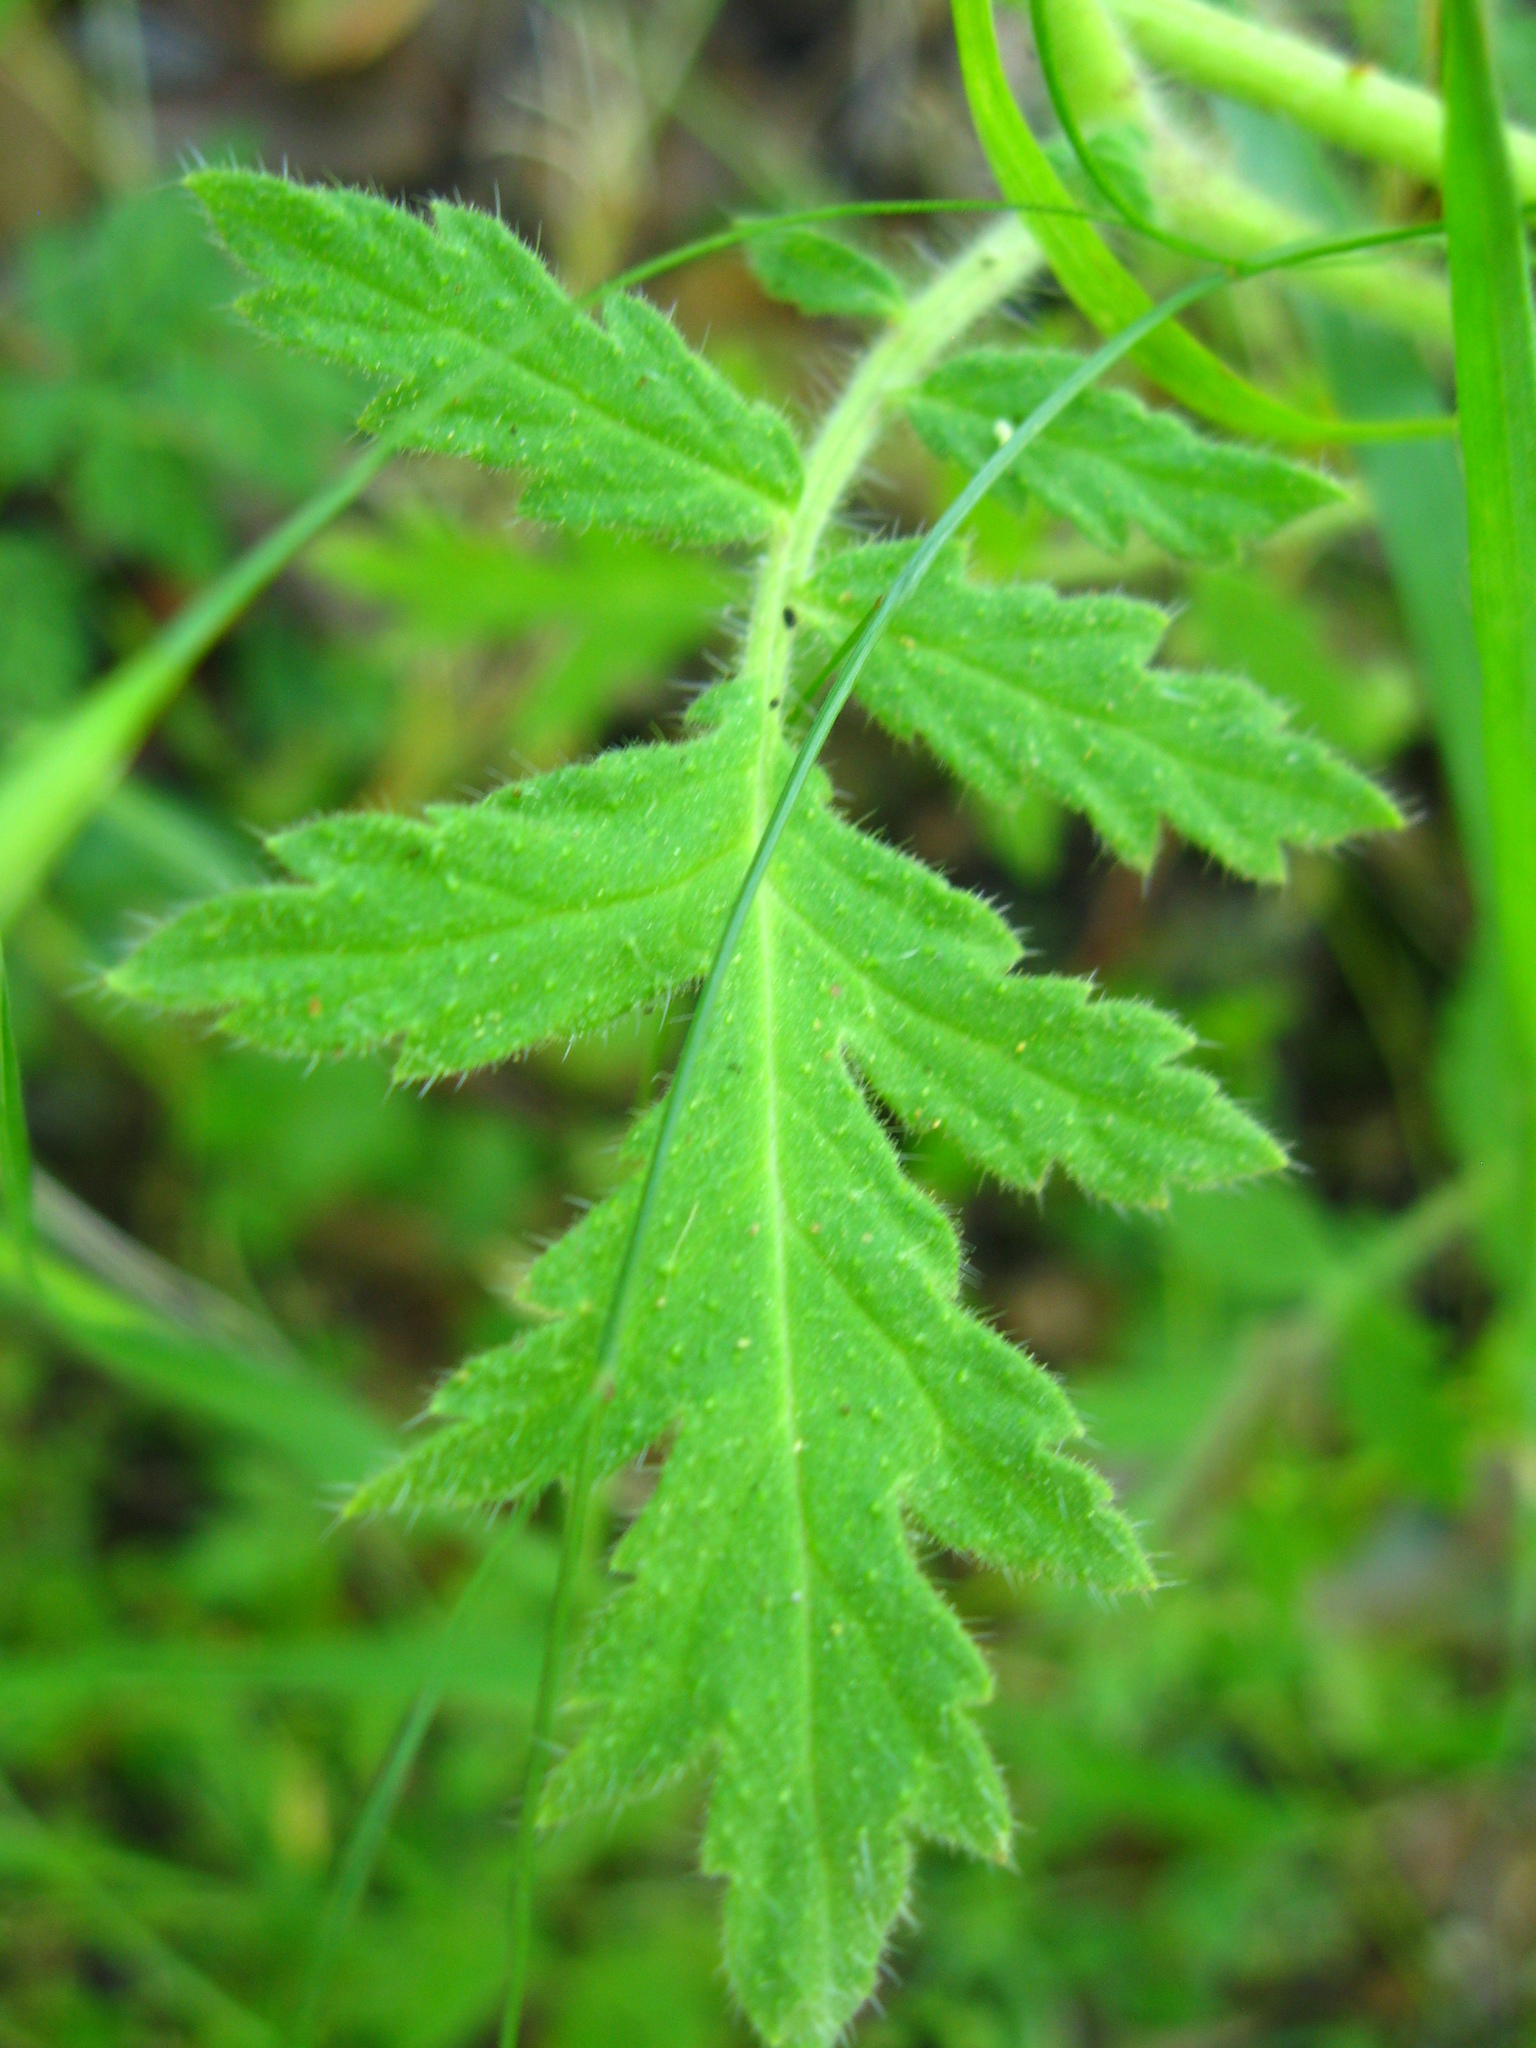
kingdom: Plantae
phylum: Tracheophyta
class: Magnoliopsida
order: Boraginales
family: Hydrophyllaceae
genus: Phacelia
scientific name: Phacelia cicutaria
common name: Caterpillar phacelia
